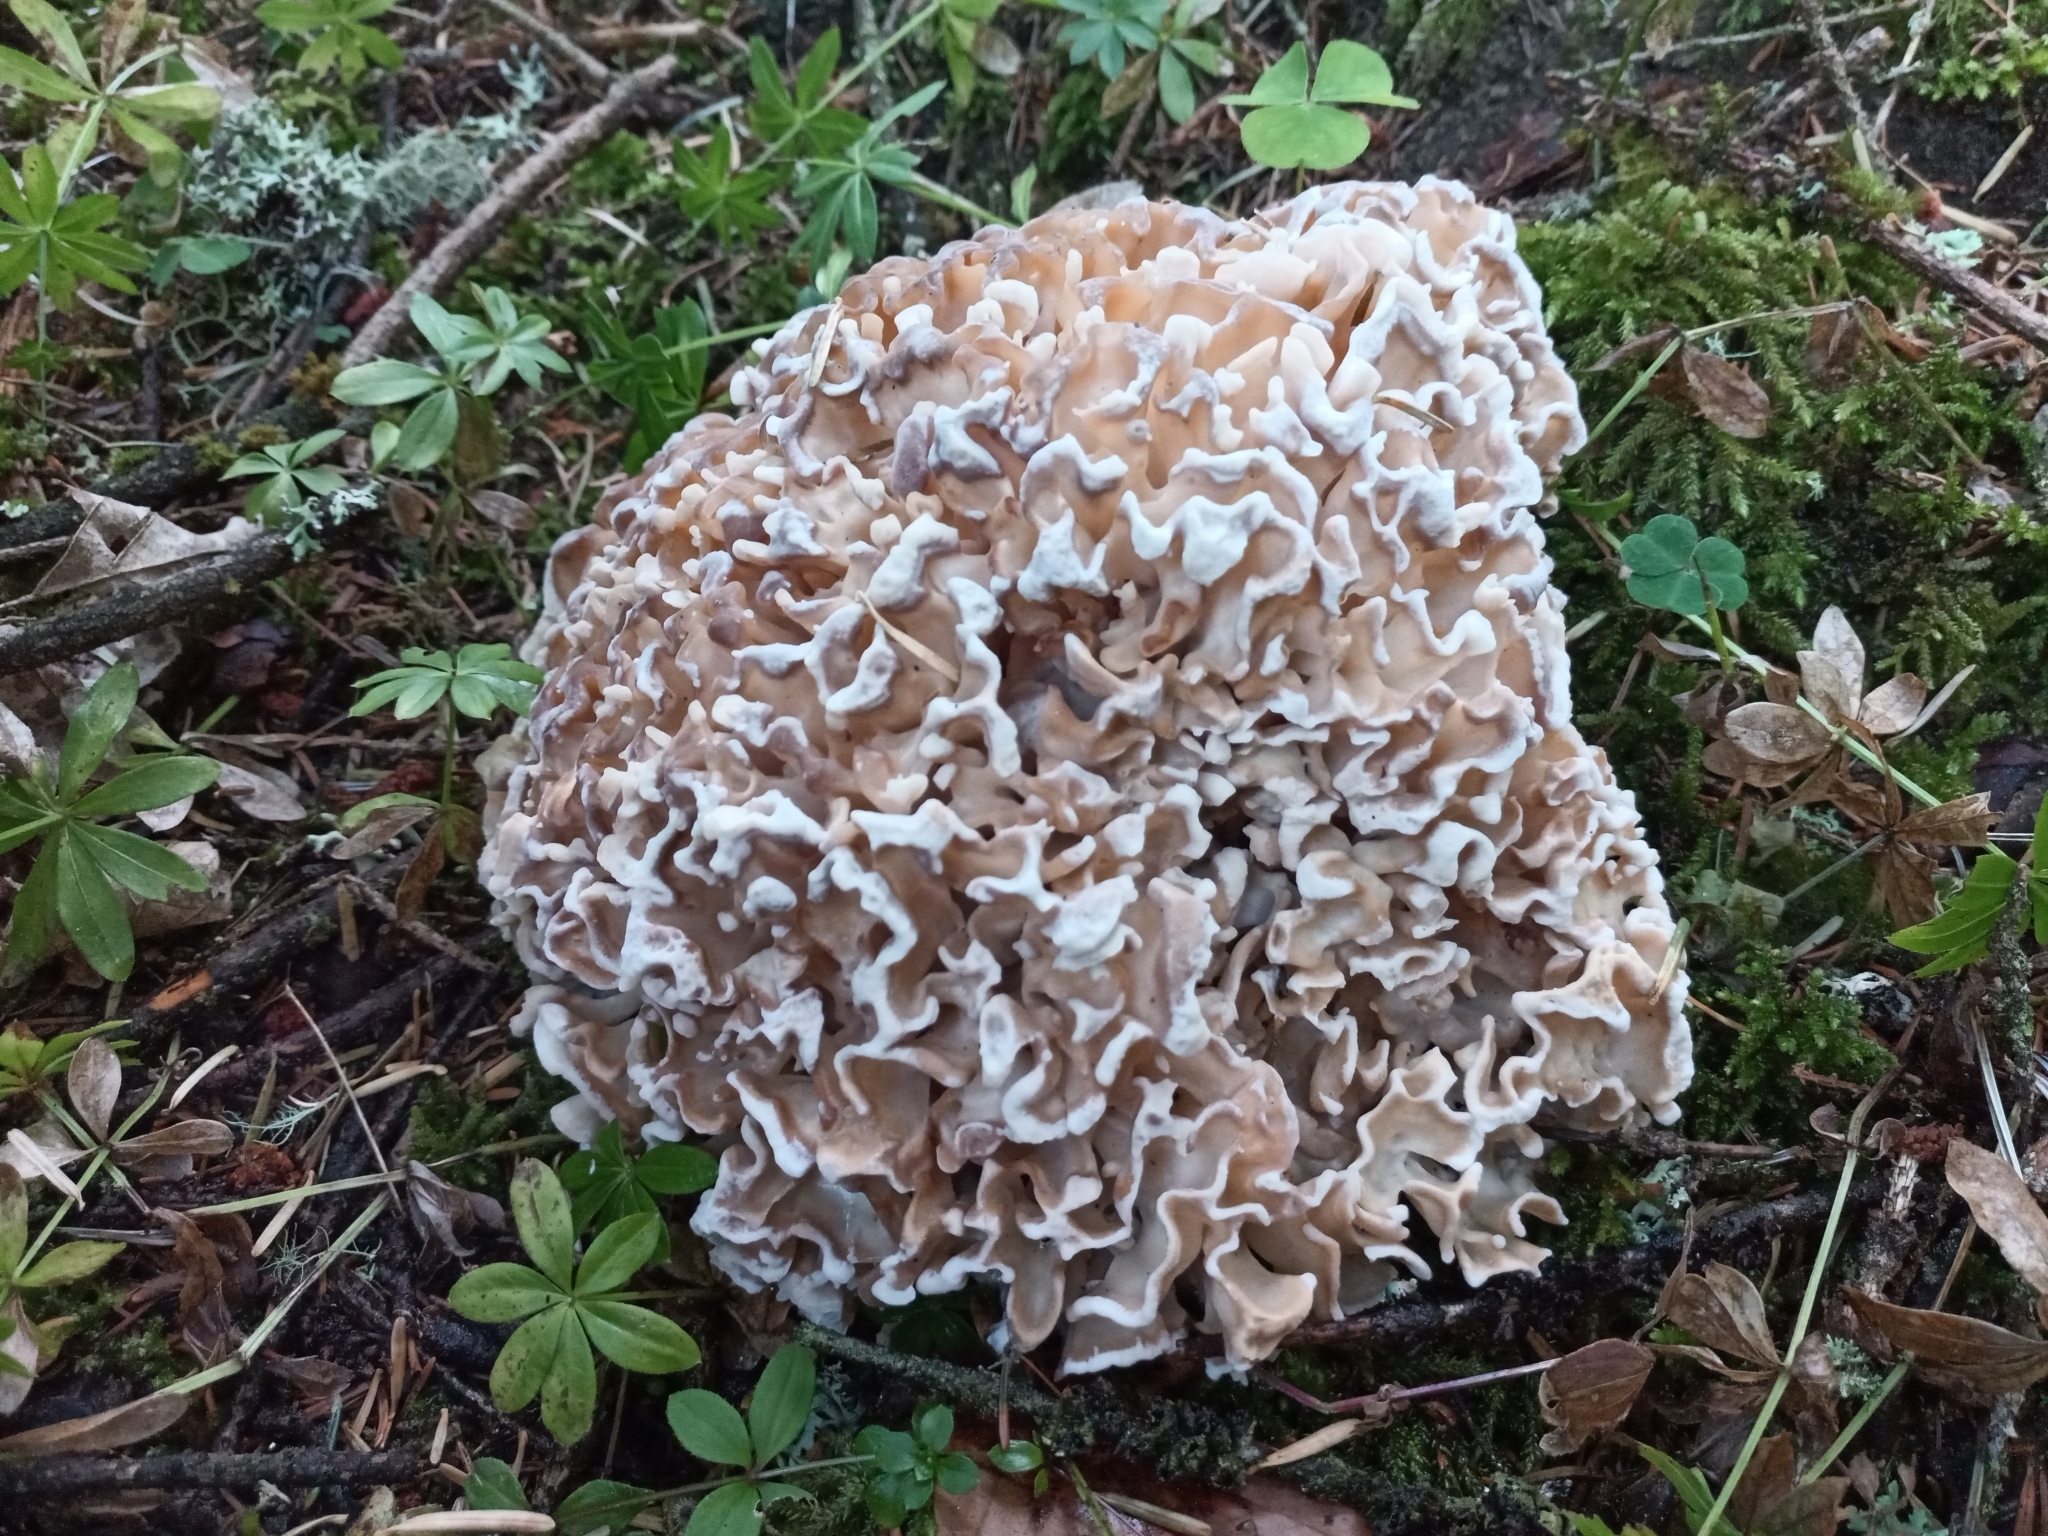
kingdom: Fungi
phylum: Basidiomycota
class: Agaricomycetes
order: Polyporales
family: Sparassidaceae
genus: Sparassis
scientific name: Sparassis crispa
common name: Brain fungus
